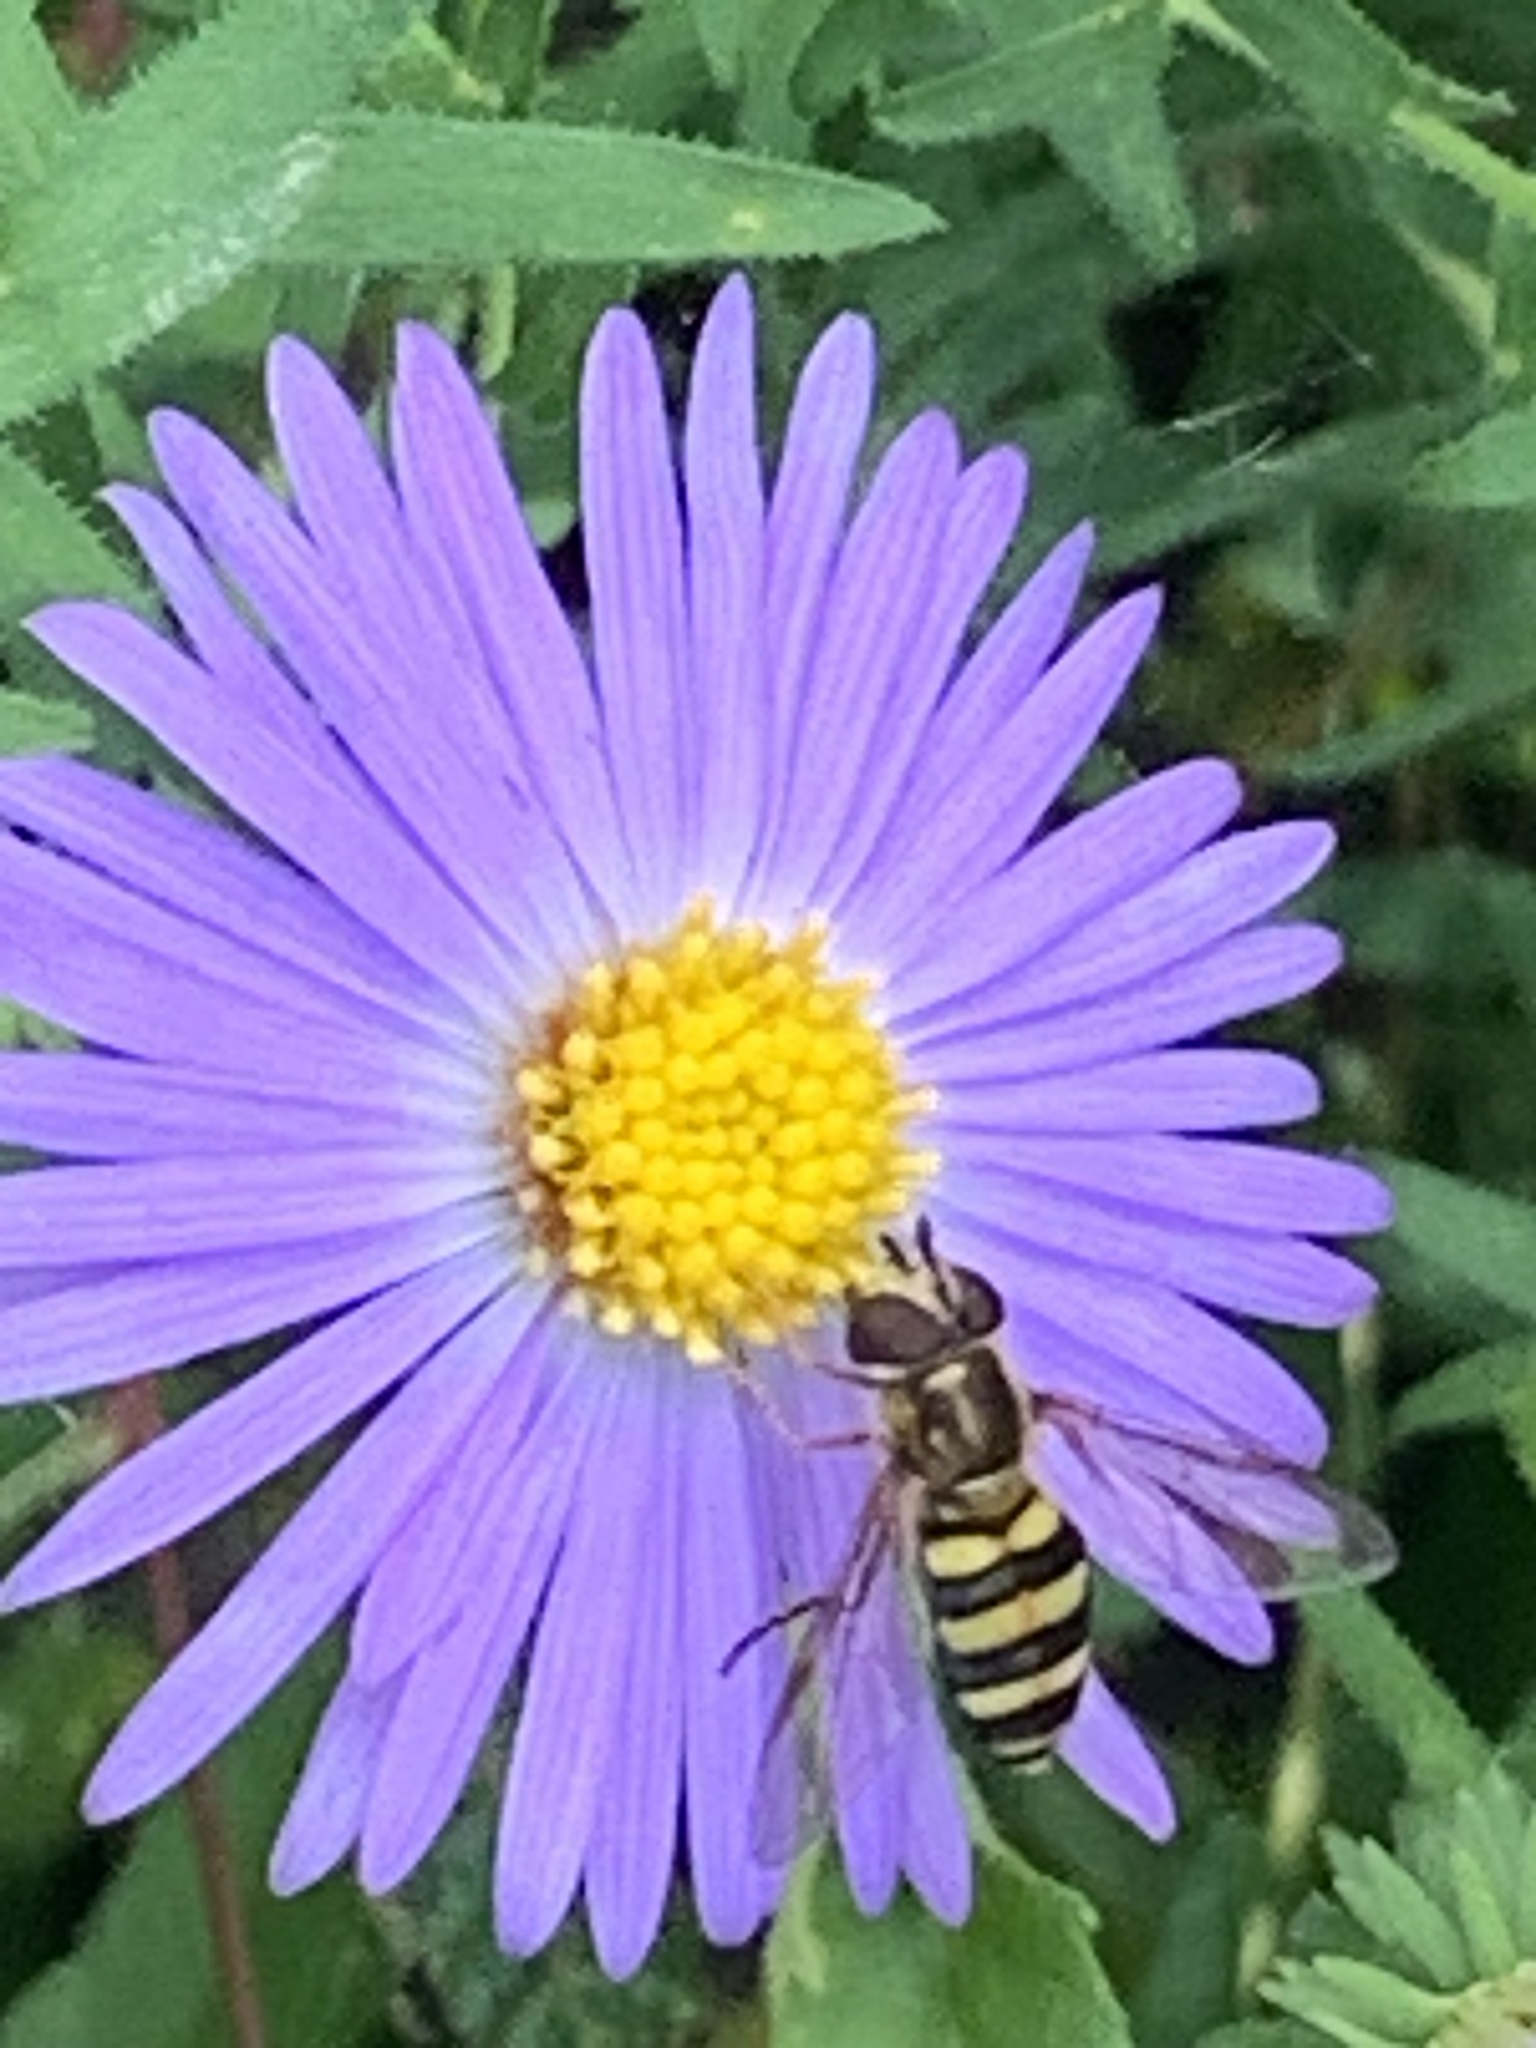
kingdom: Animalia
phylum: Arthropoda
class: Insecta
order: Diptera
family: Syrphidae
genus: Eupeodes
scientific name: Eupeodes
